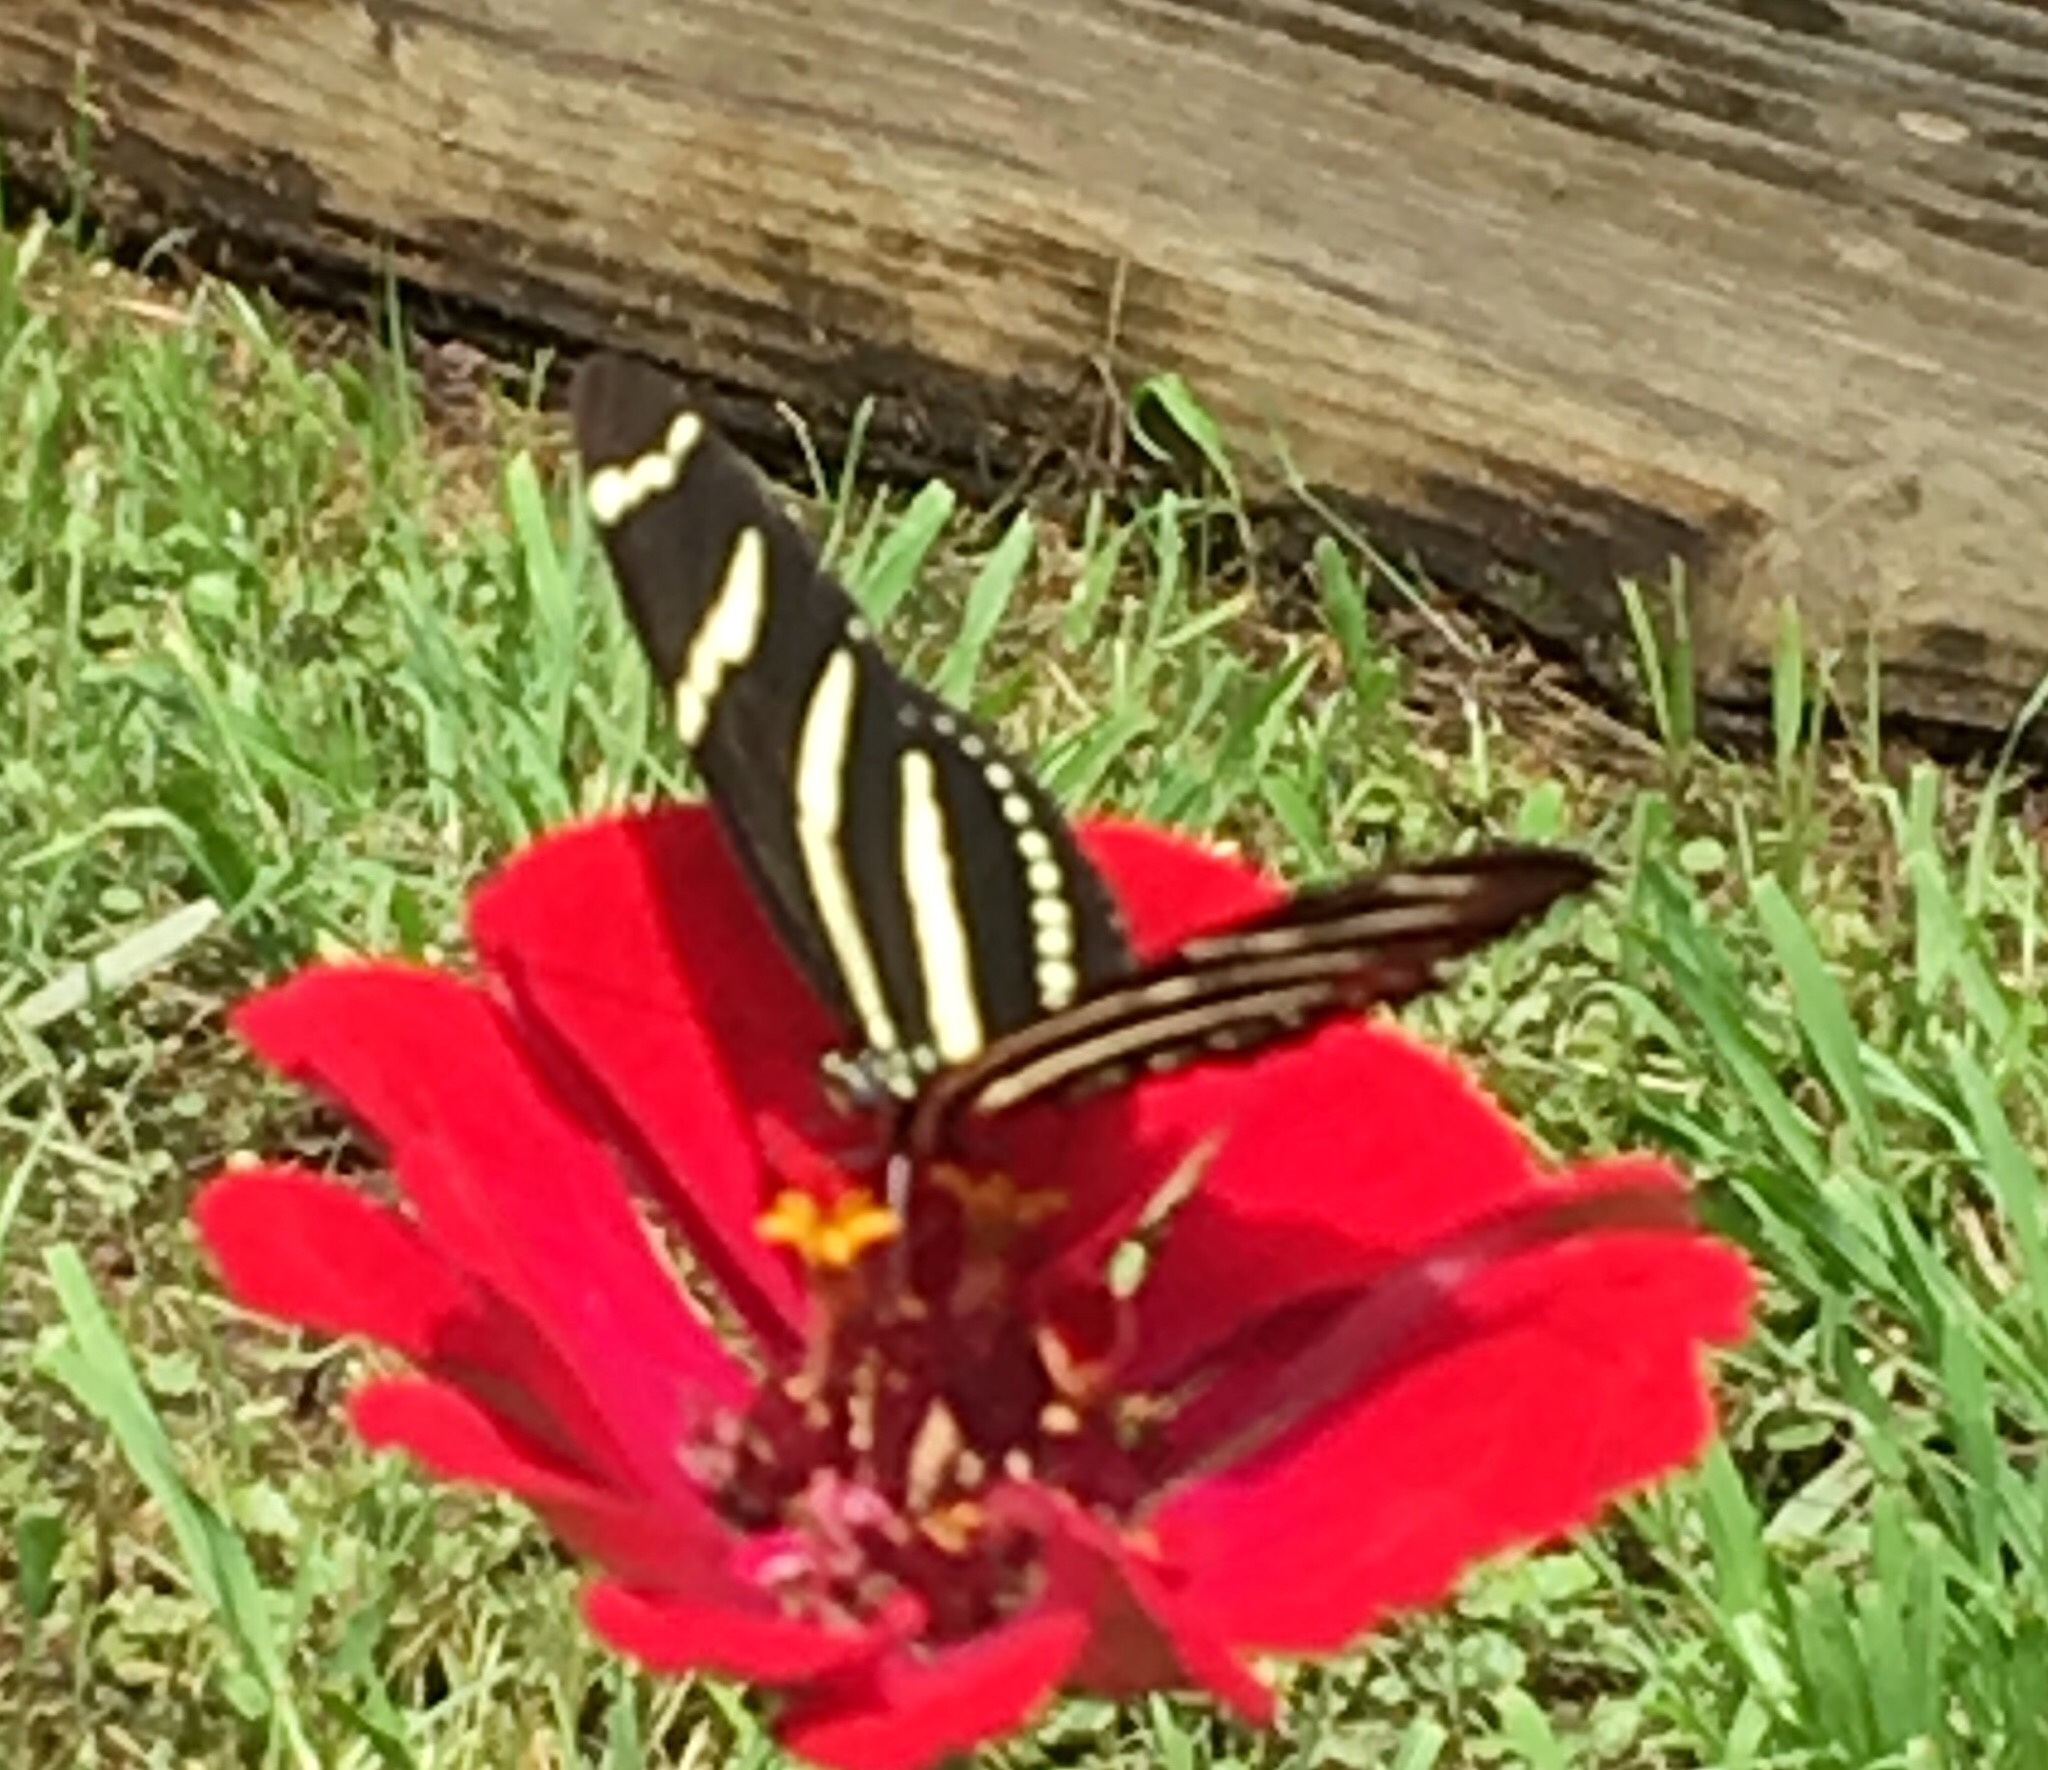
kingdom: Animalia
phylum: Arthropoda
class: Insecta
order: Lepidoptera
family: Nymphalidae
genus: Heliconius
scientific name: Heliconius charithonia
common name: Zebra long wing
